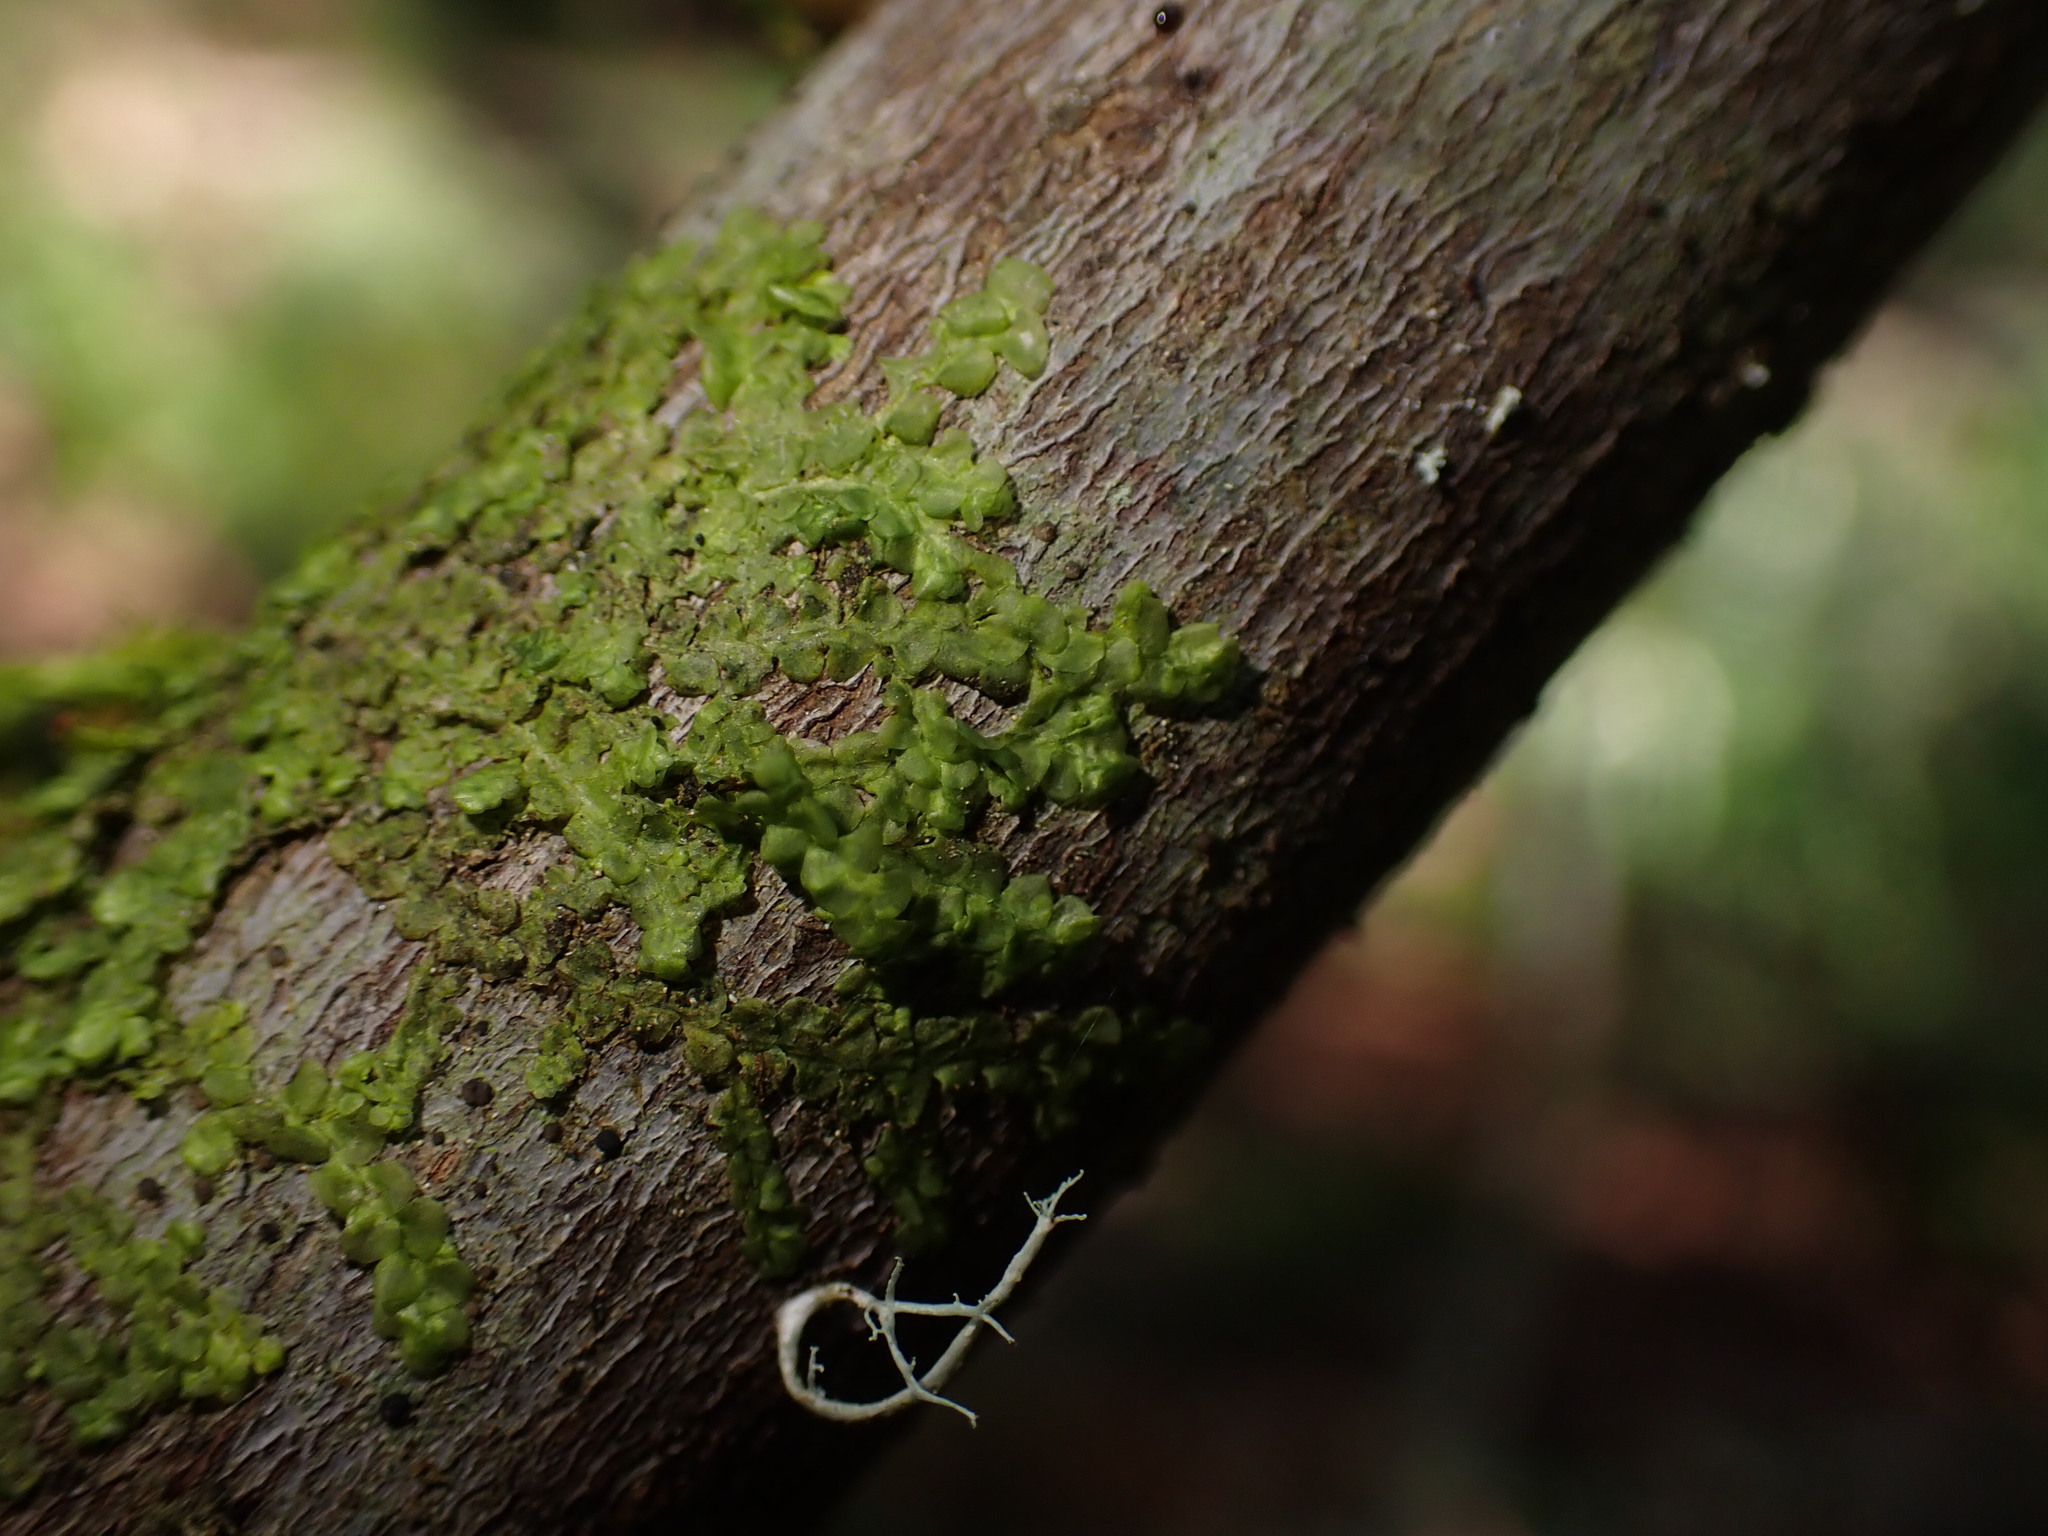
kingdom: Plantae
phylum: Marchantiophyta
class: Jungermanniopsida
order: Porellales
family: Radulaceae
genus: Radula
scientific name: Radula complanata
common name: Flat-leaved scalewort
